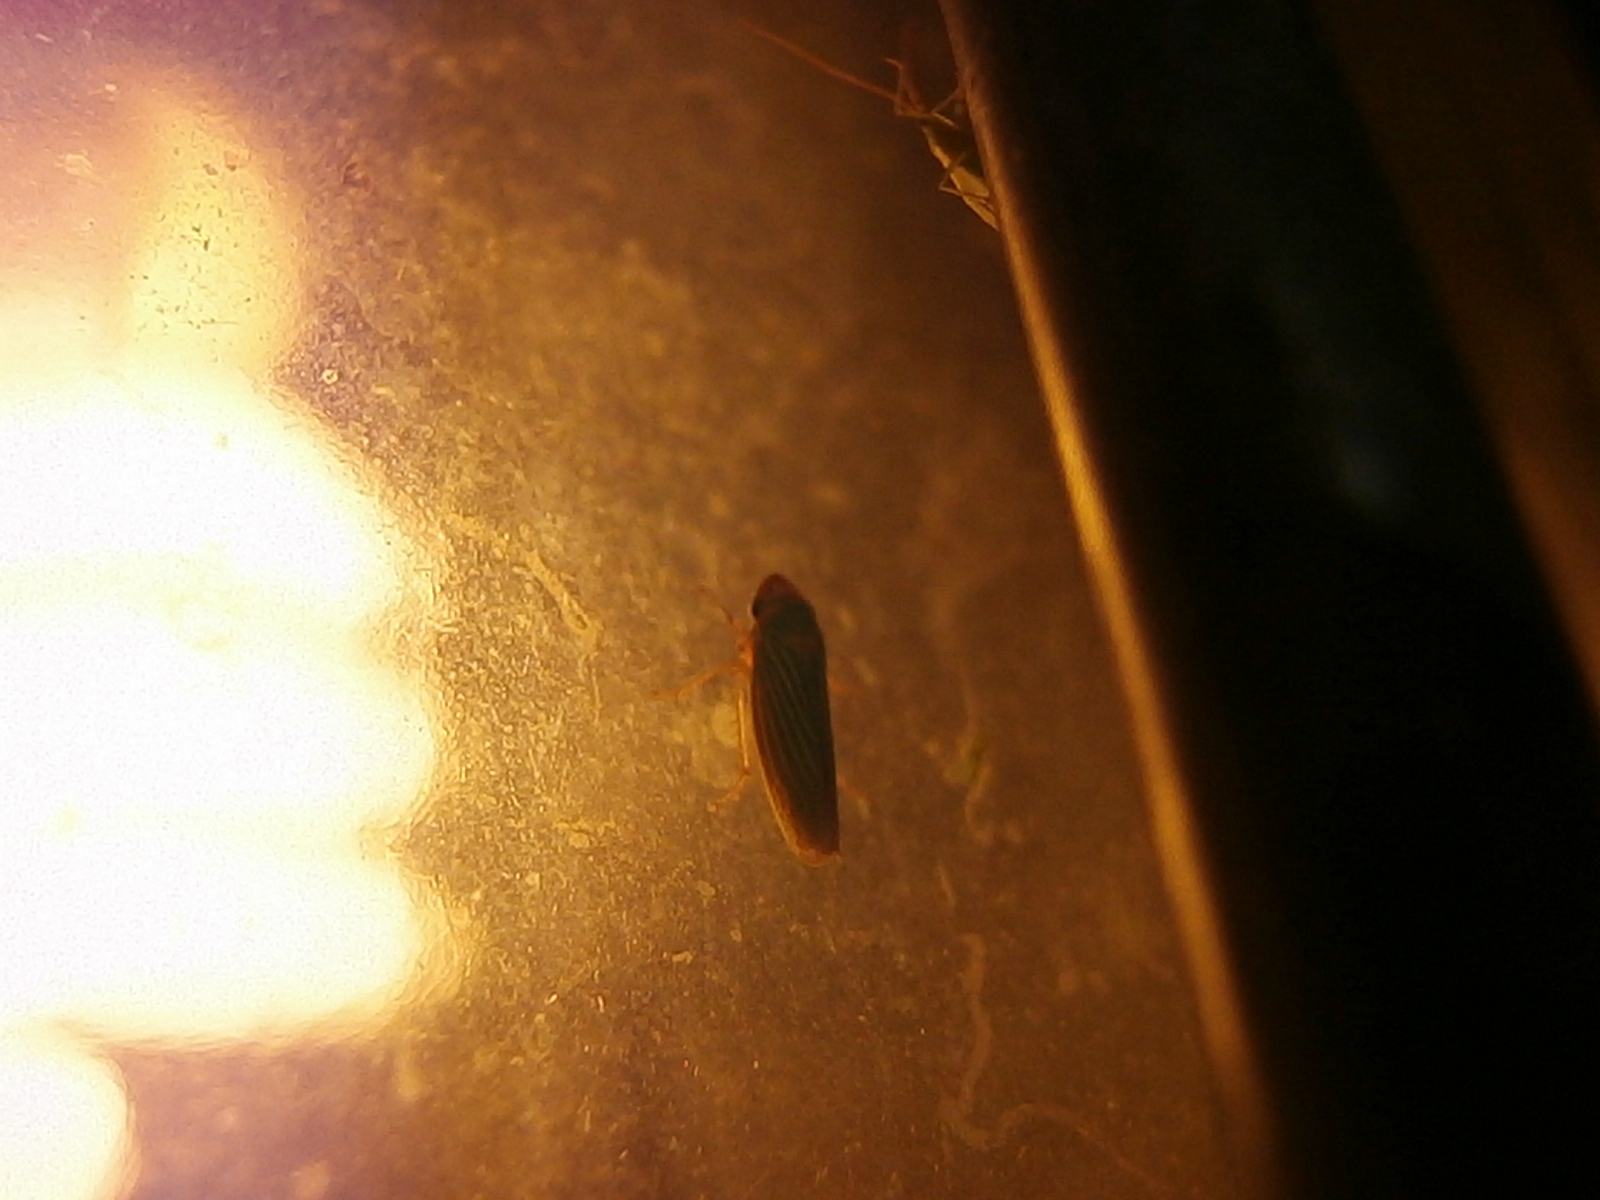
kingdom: Animalia
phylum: Arthropoda
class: Insecta
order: Hemiptera
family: Cicadellidae
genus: Xyphon
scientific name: Xyphon flaviceps
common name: Yellowheaded leafhopper
